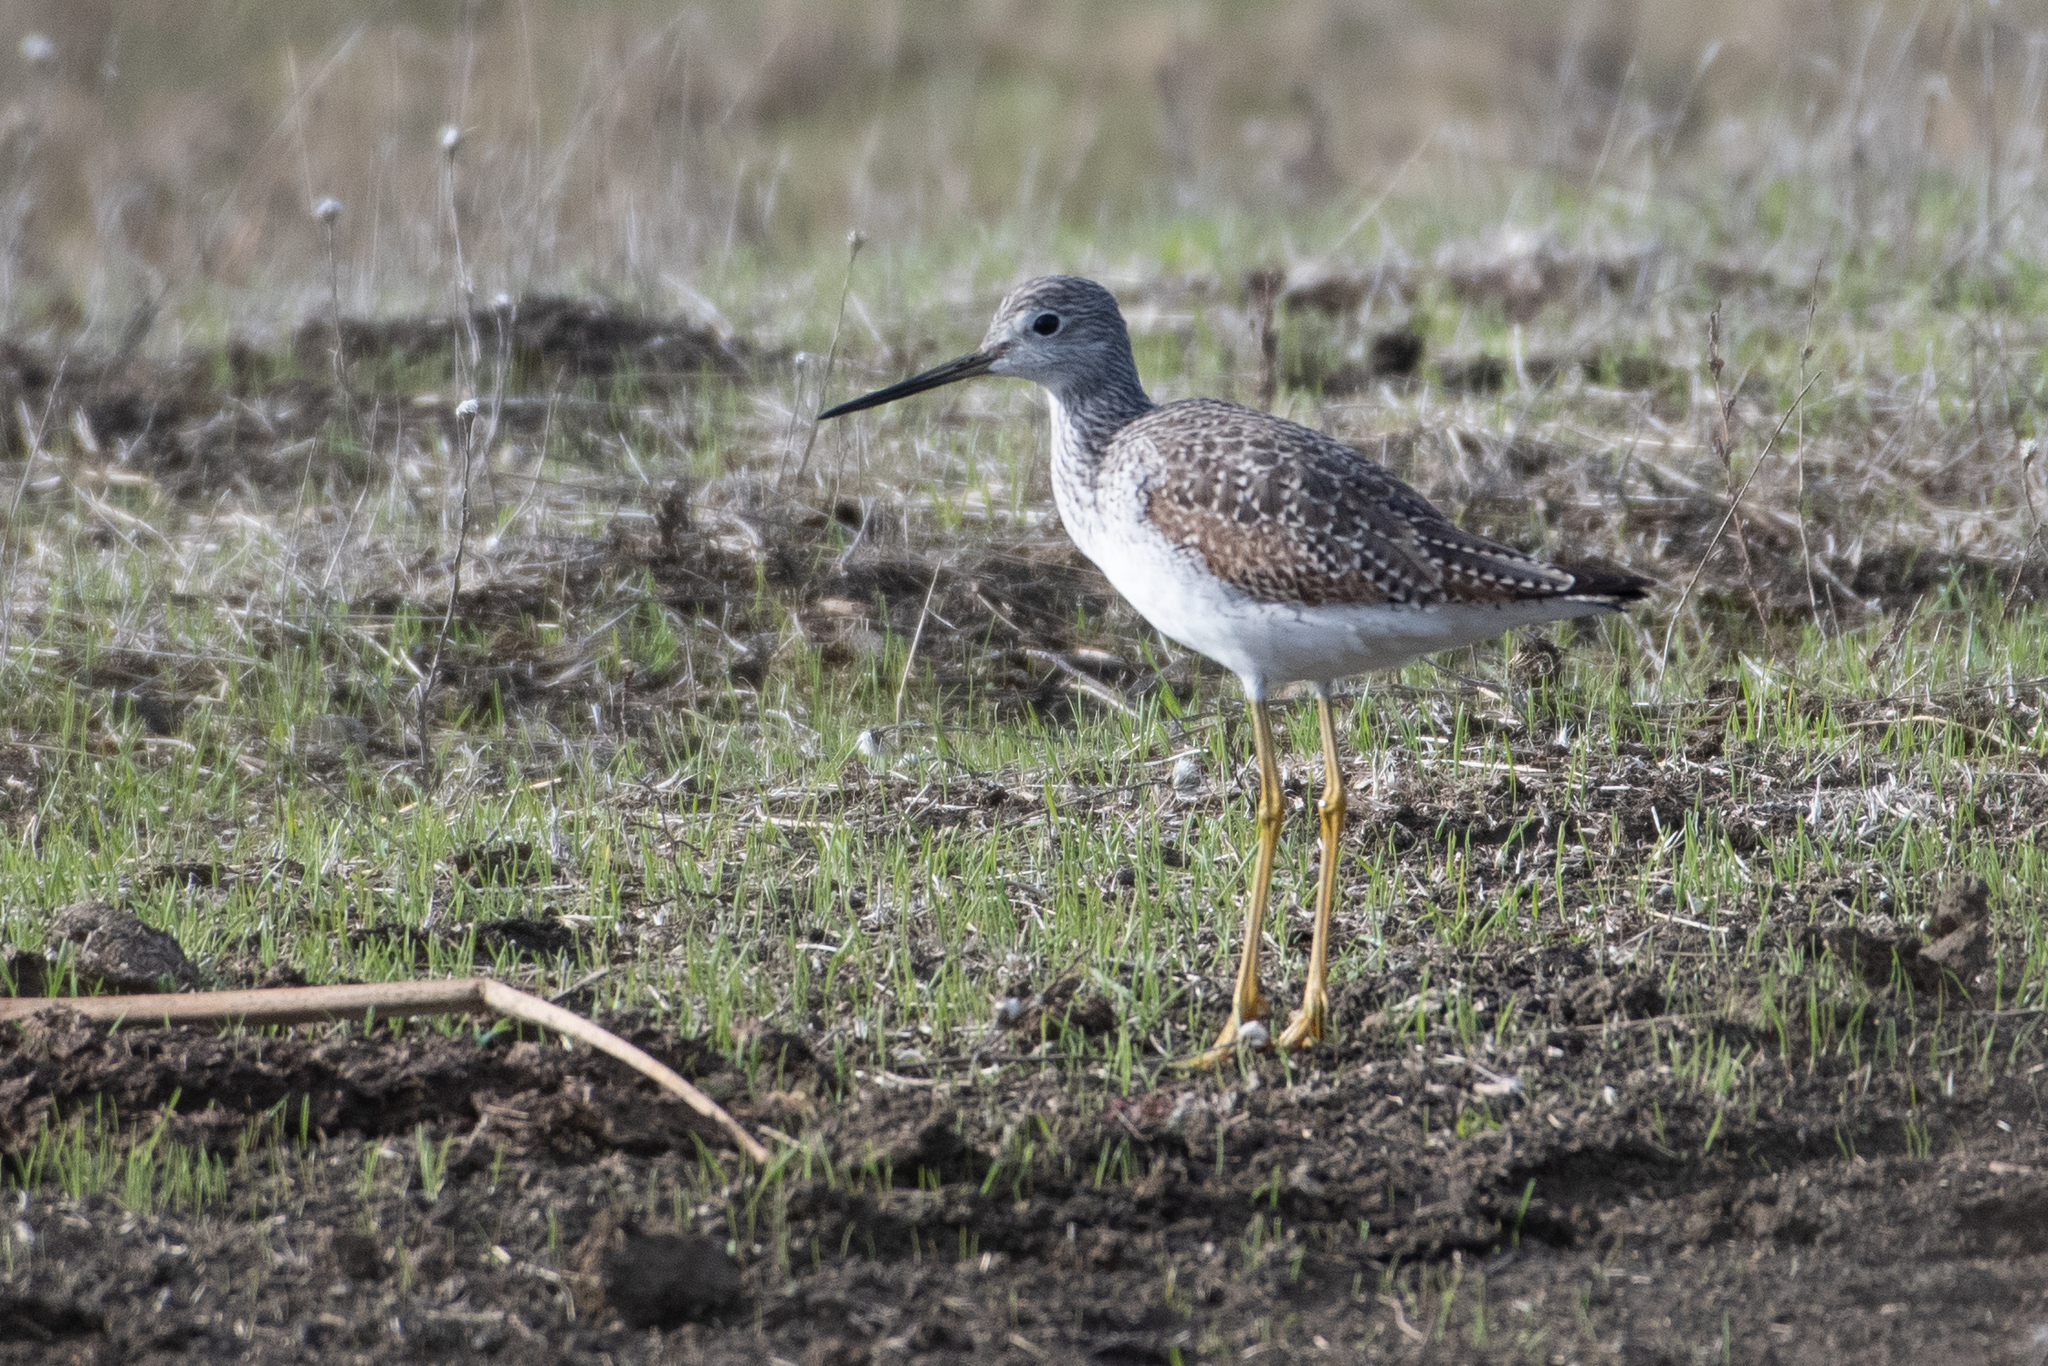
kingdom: Animalia
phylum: Chordata
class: Aves
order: Charadriiformes
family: Scolopacidae
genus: Tringa
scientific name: Tringa melanoleuca
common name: Greater yellowlegs
